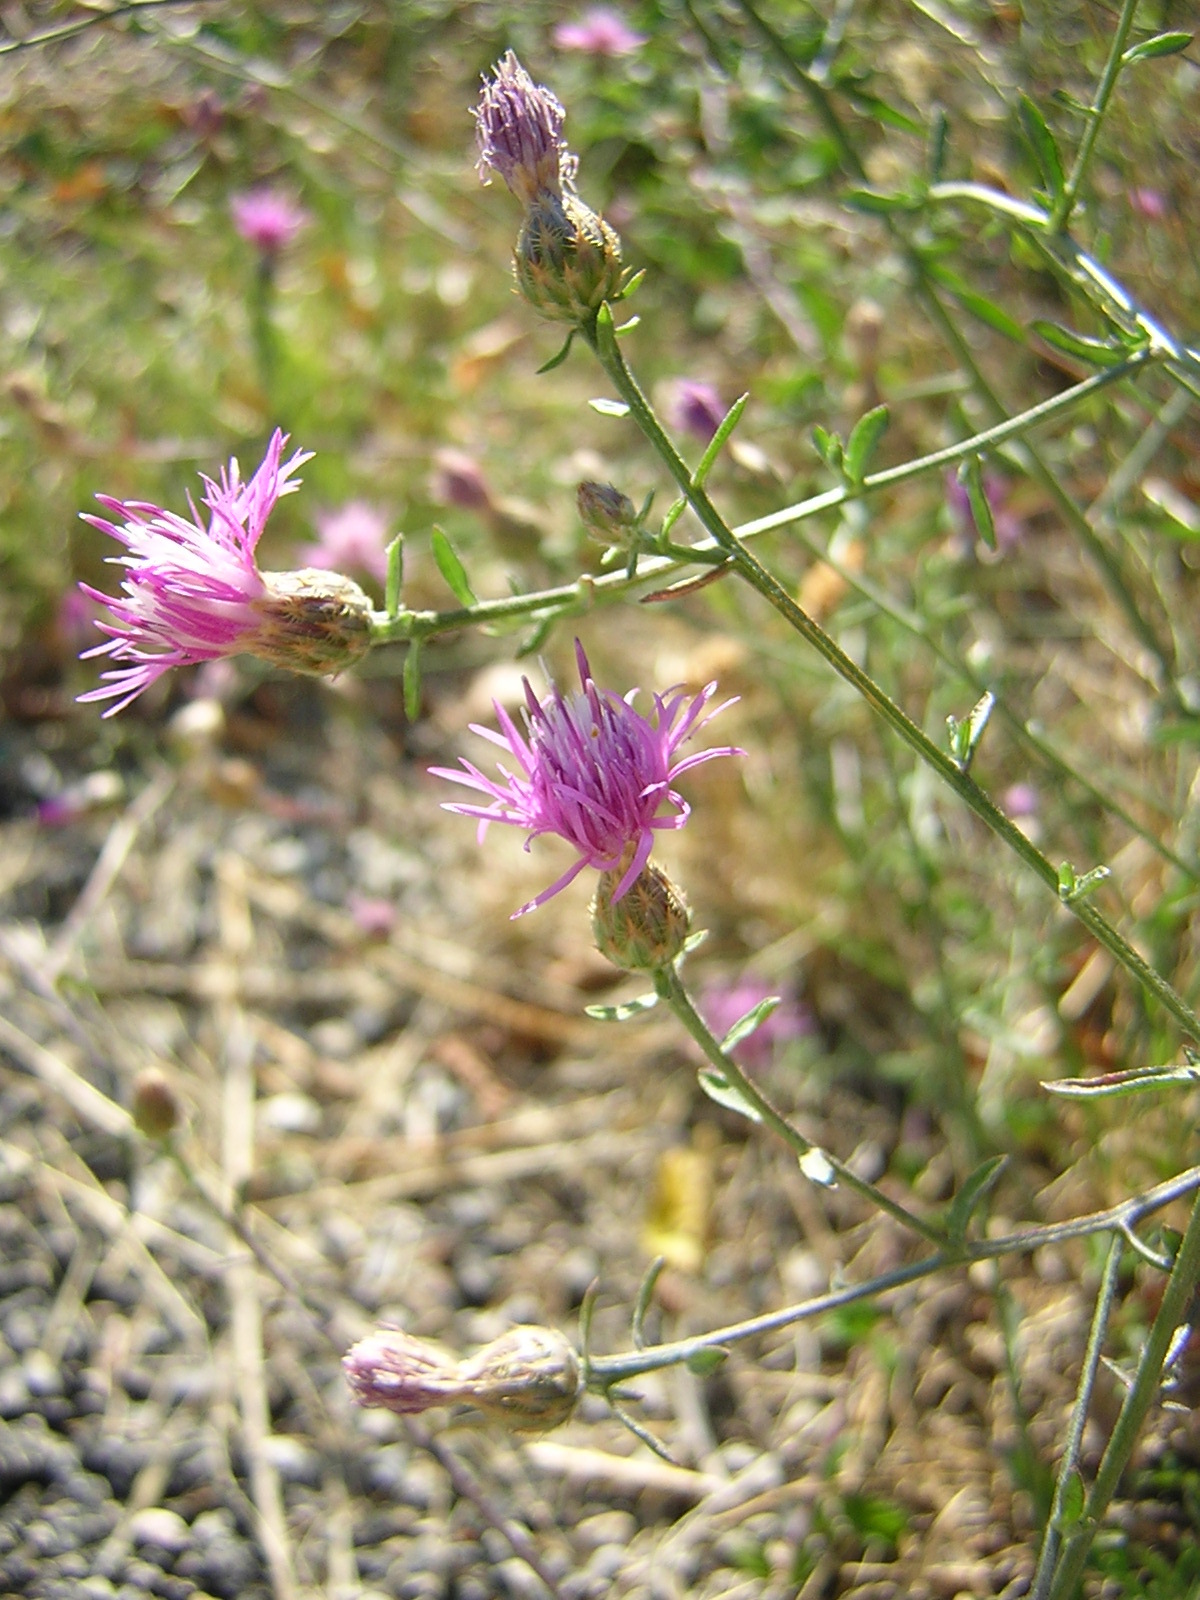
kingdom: Plantae
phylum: Tracheophyta
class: Magnoliopsida
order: Asterales
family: Asteraceae
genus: Centaurea
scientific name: Centaurea paniculata
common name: Jersey knapweed
